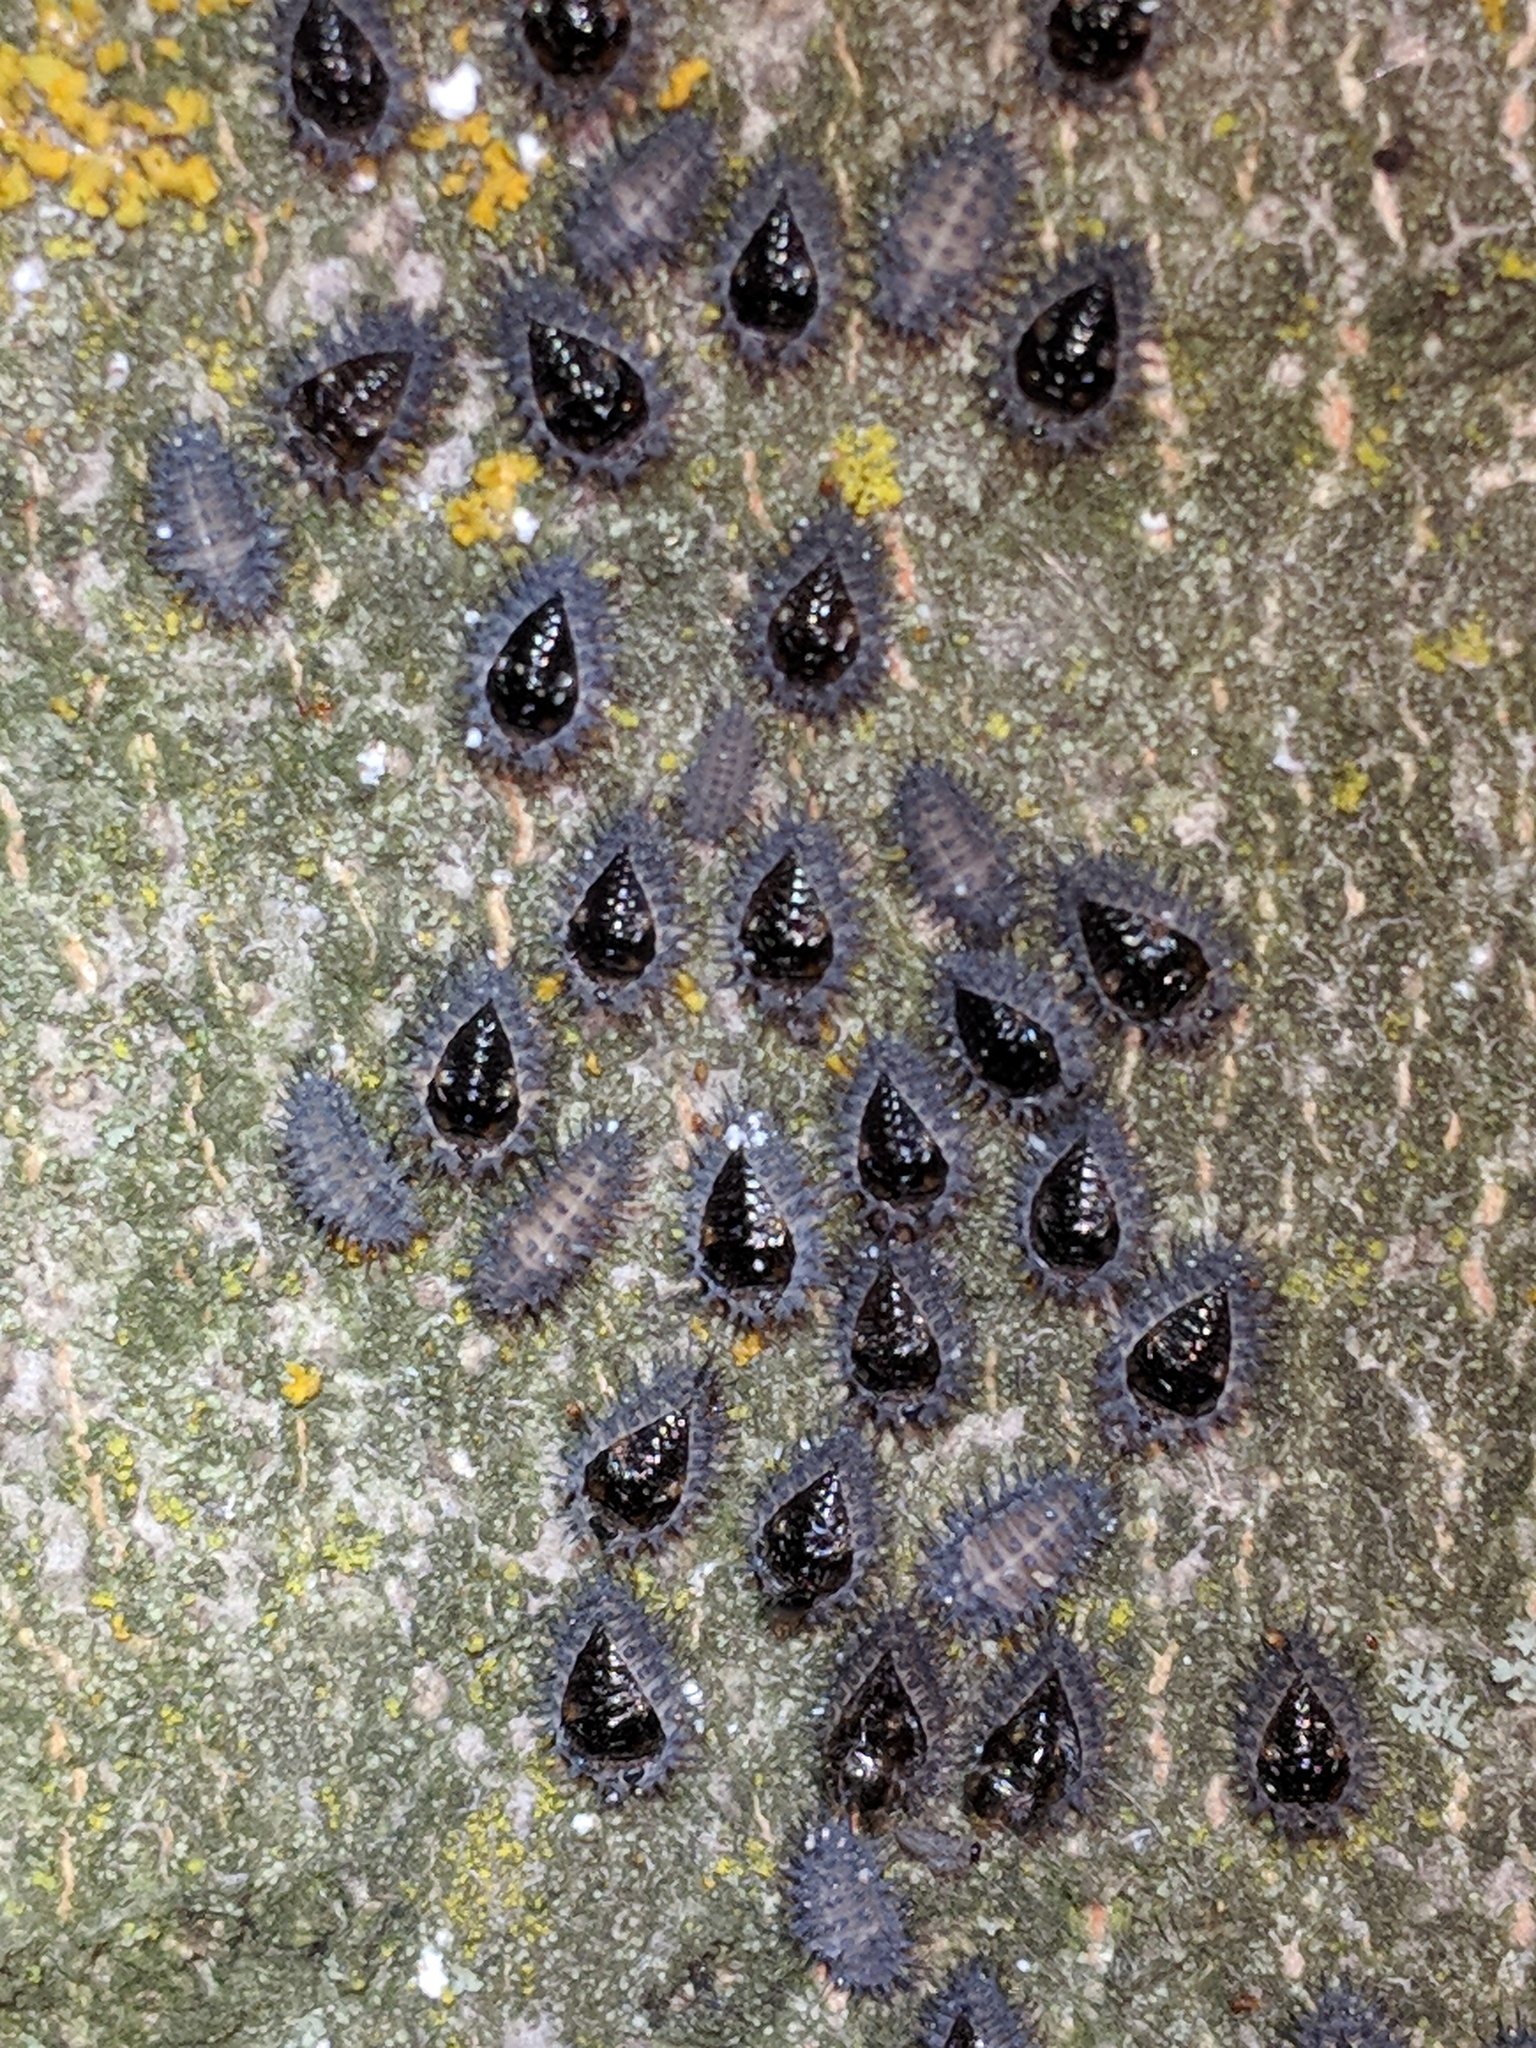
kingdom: Animalia
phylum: Arthropoda
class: Insecta
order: Coleoptera
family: Coccinellidae
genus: Chilocorus
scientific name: Chilocorus stigma
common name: Twicestabbed lady beetle
